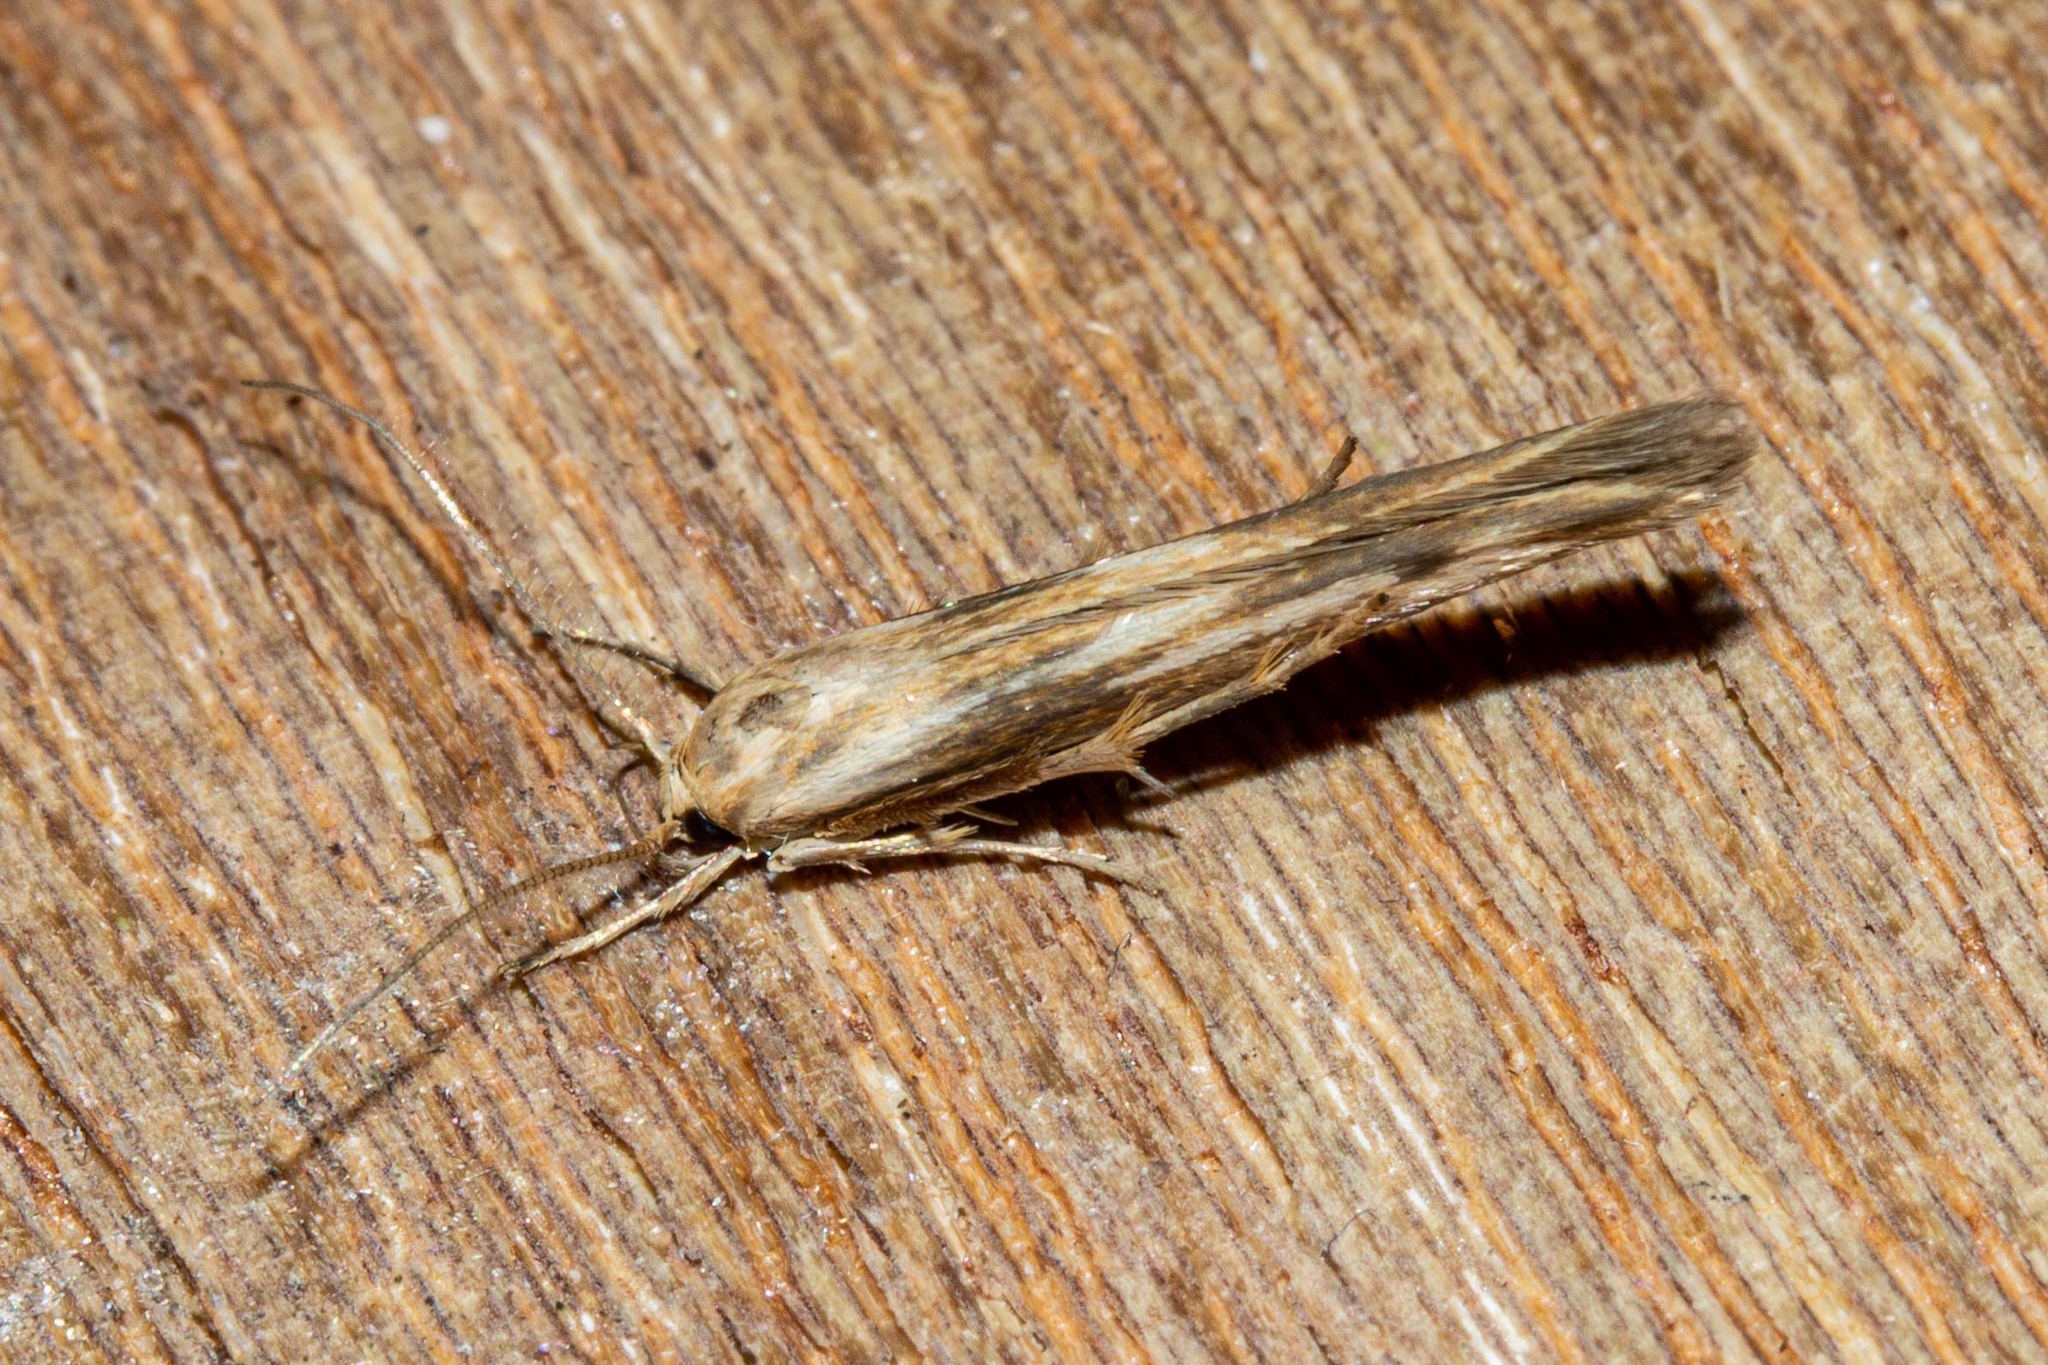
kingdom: Animalia
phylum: Arthropoda
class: Insecta
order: Lepidoptera
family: Stathmopodidae
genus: Stathmopoda
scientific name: Stathmopoda aposema
